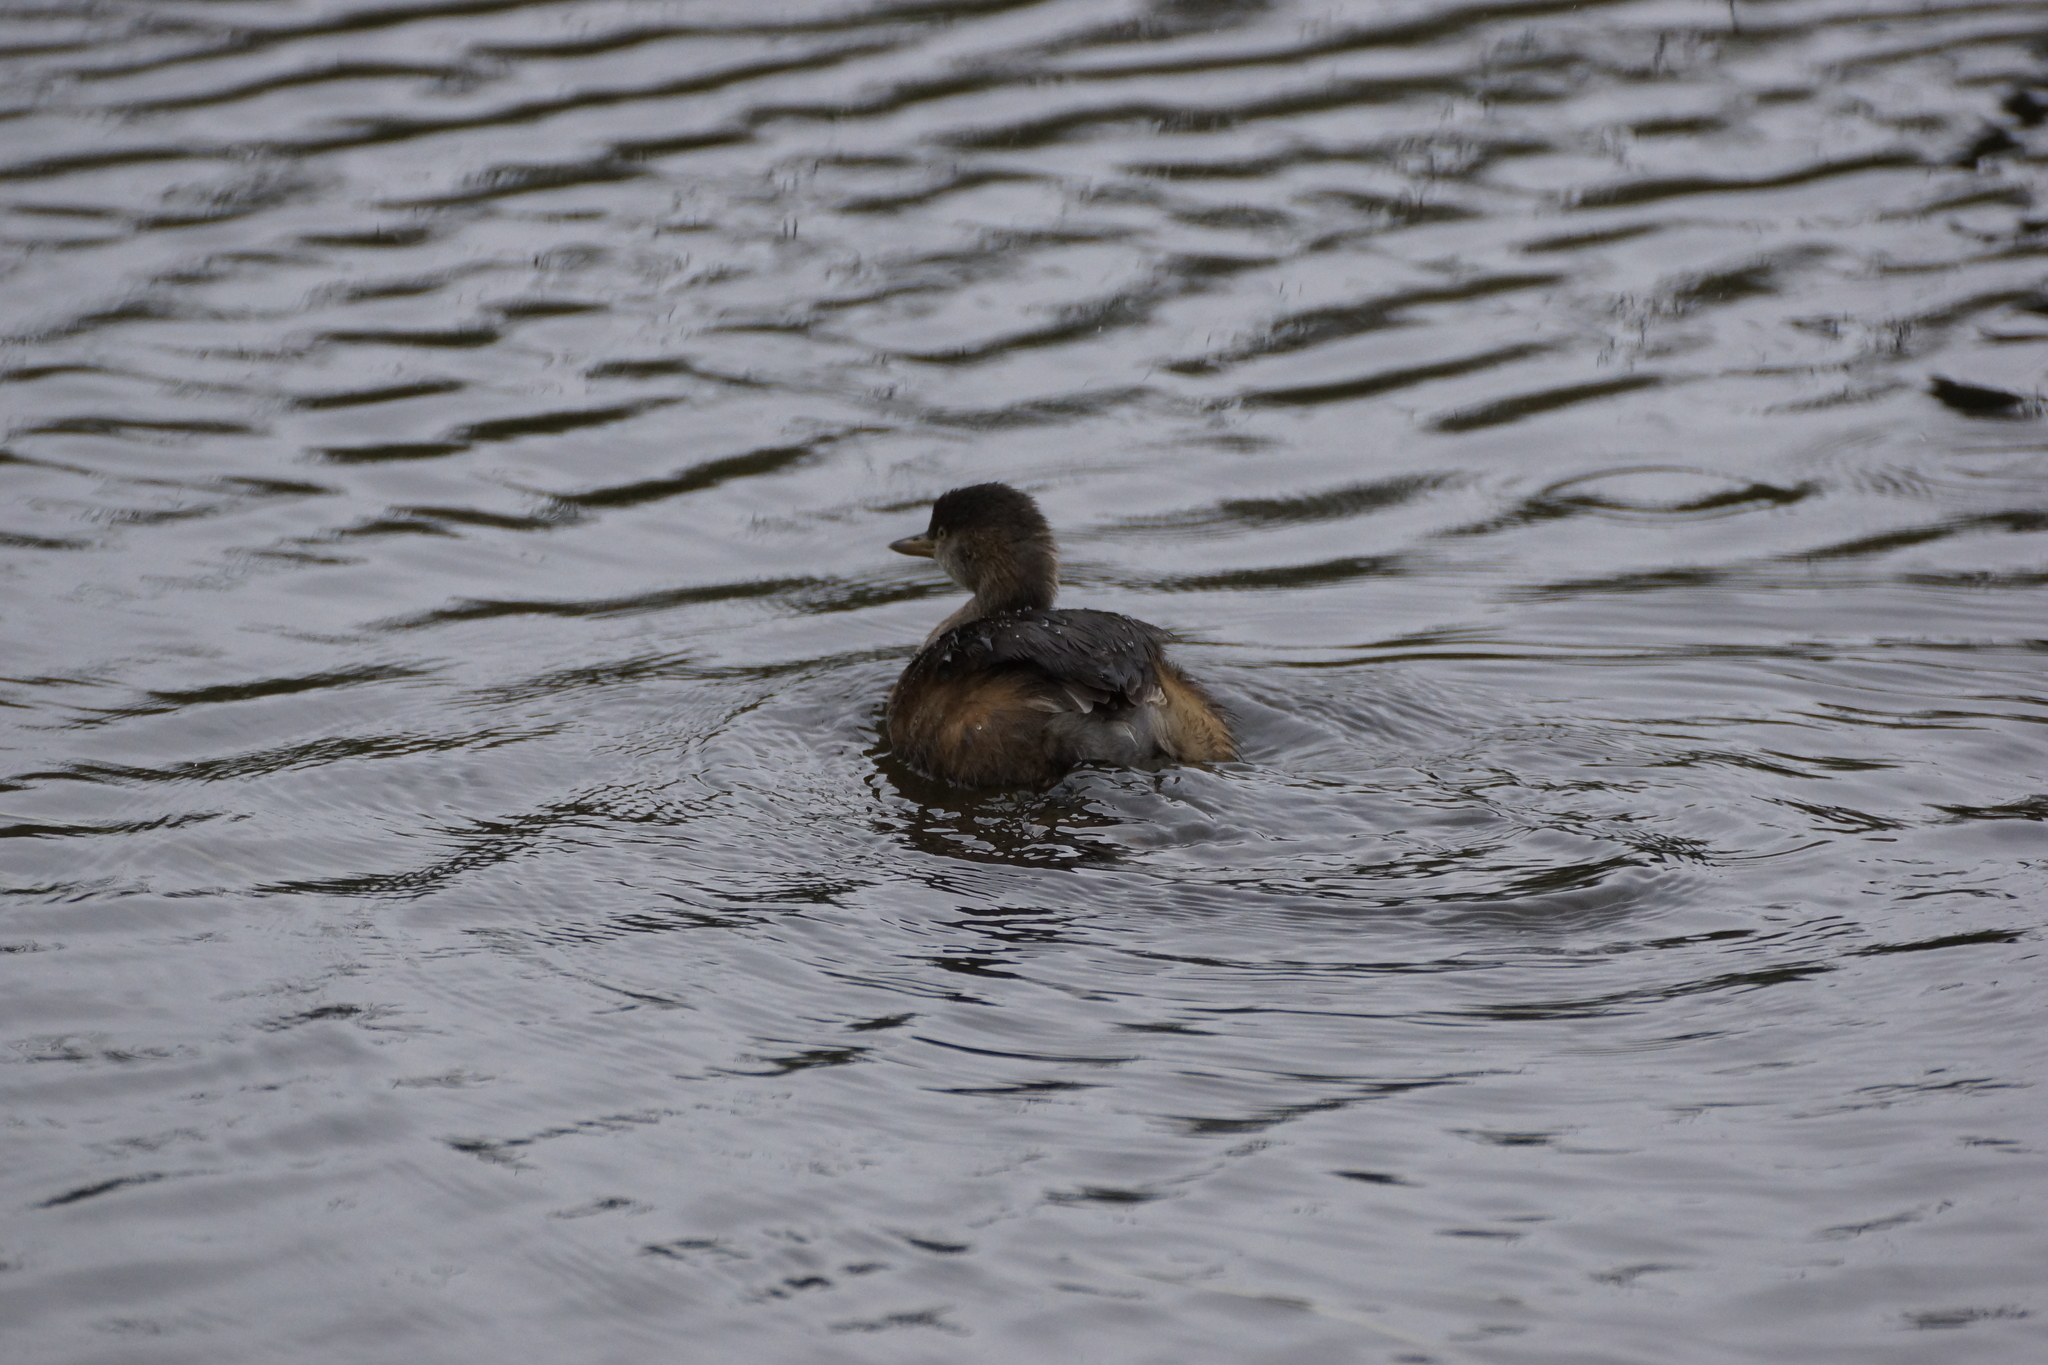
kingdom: Animalia
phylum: Chordata
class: Aves
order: Podicipediformes
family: Podicipedidae
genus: Tachybaptus
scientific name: Tachybaptus novaehollandiae
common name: Australasian grebe
